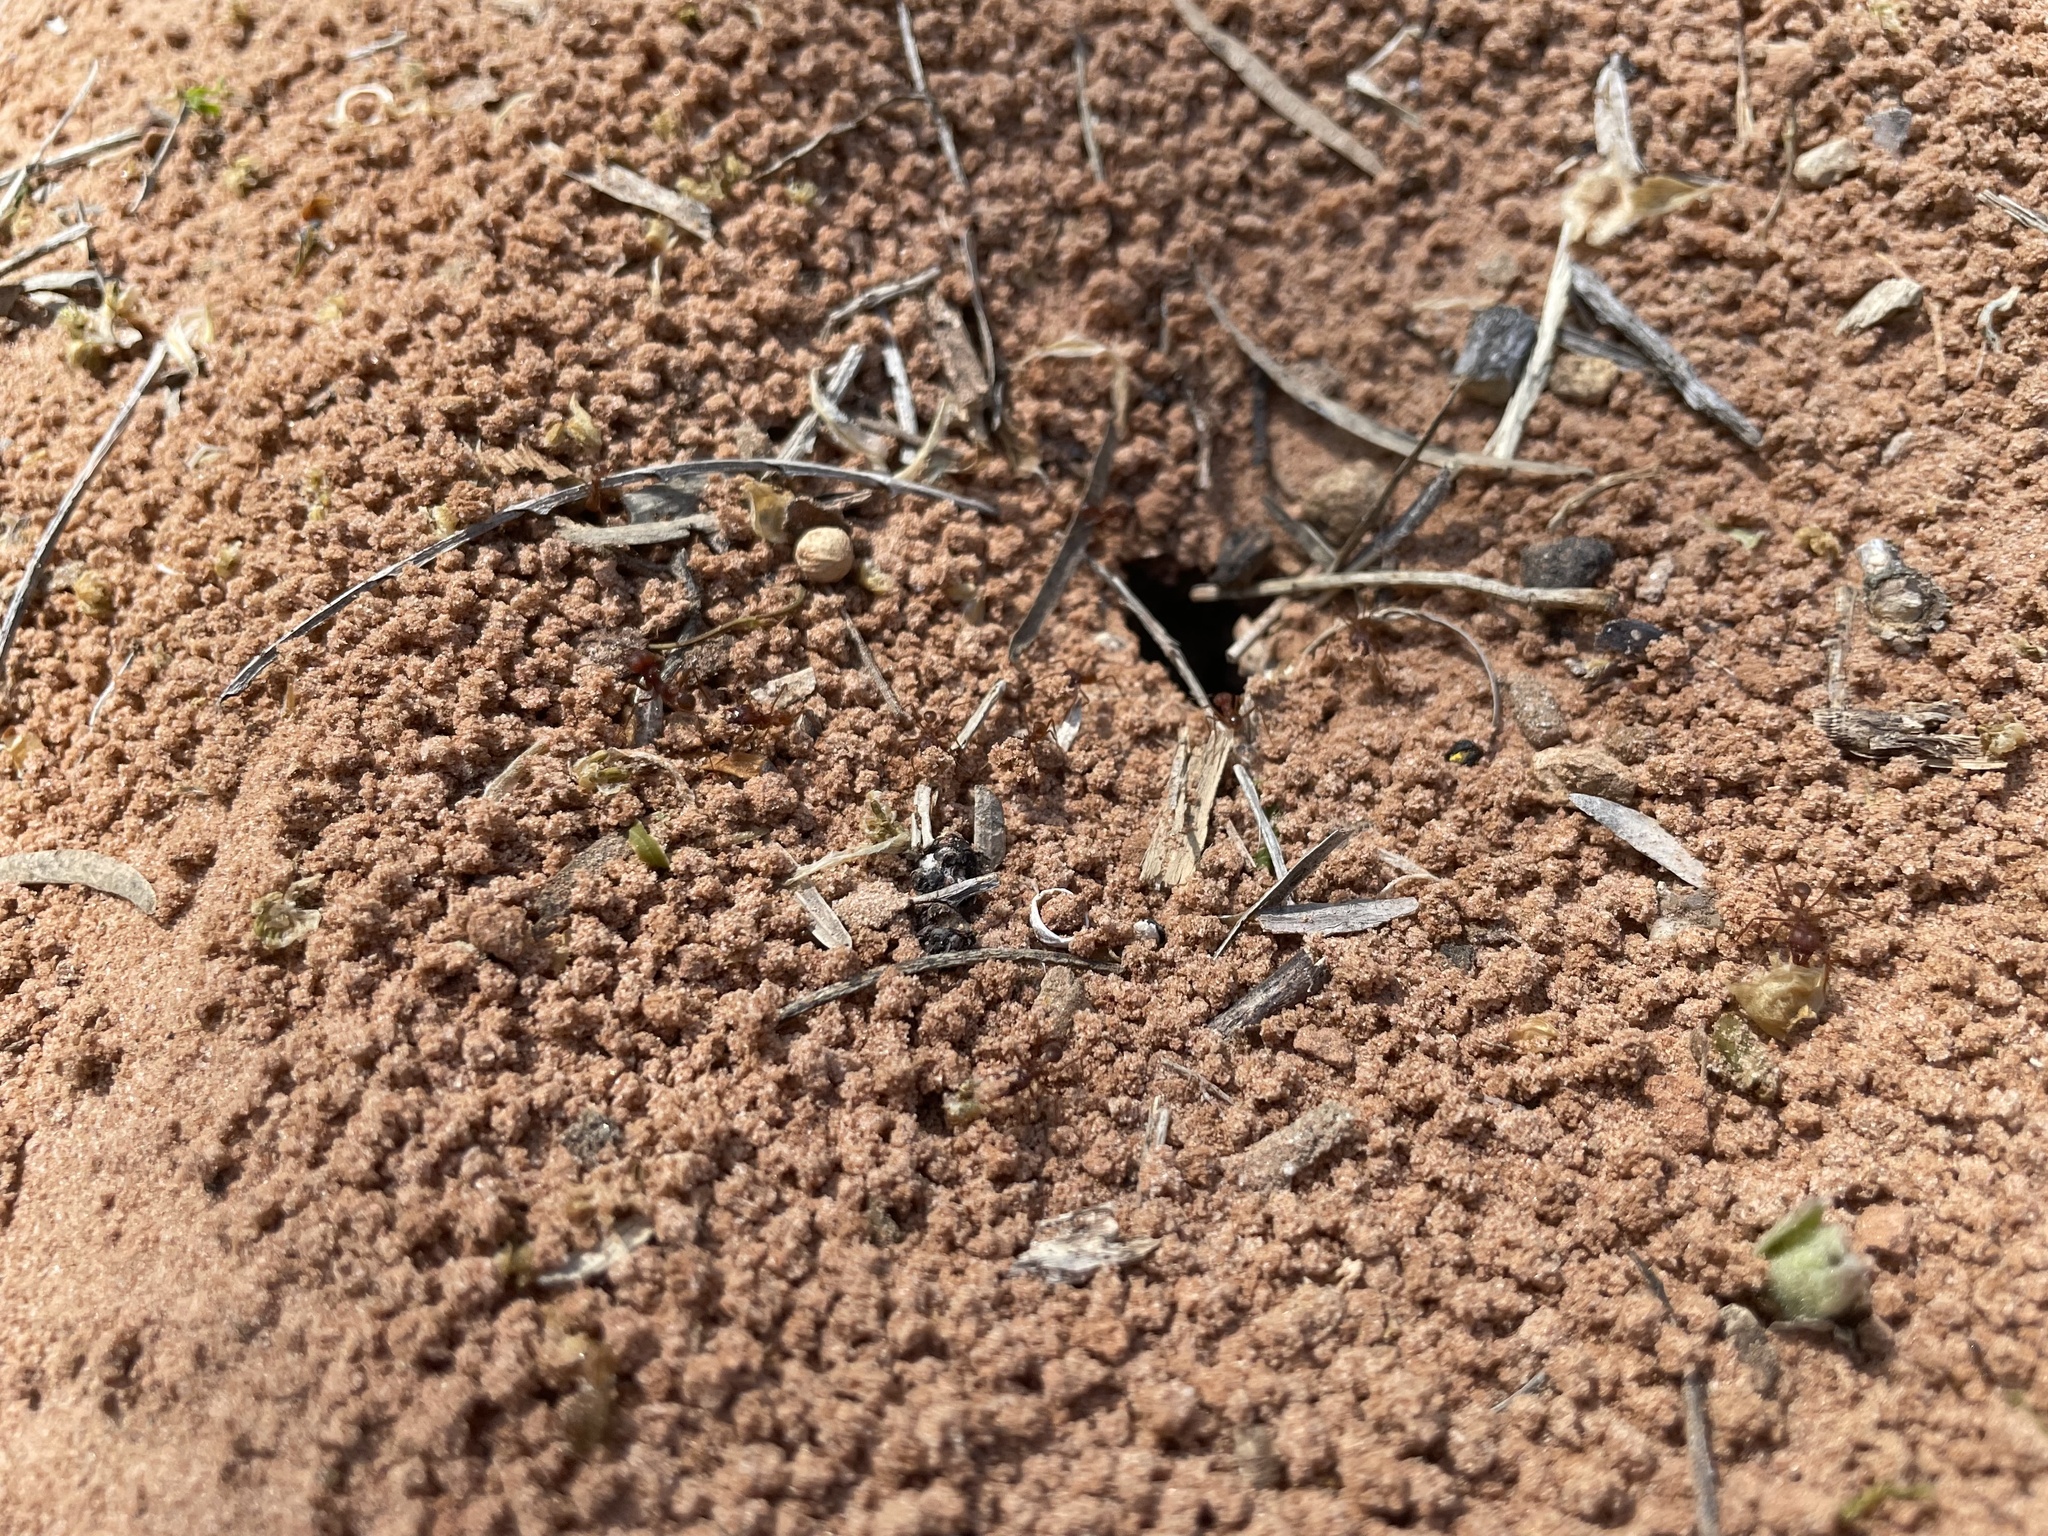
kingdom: Animalia
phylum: Arthropoda
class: Insecta
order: Hymenoptera
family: Formicidae
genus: Atta
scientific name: Atta texana
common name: Texas leafcutting ant
